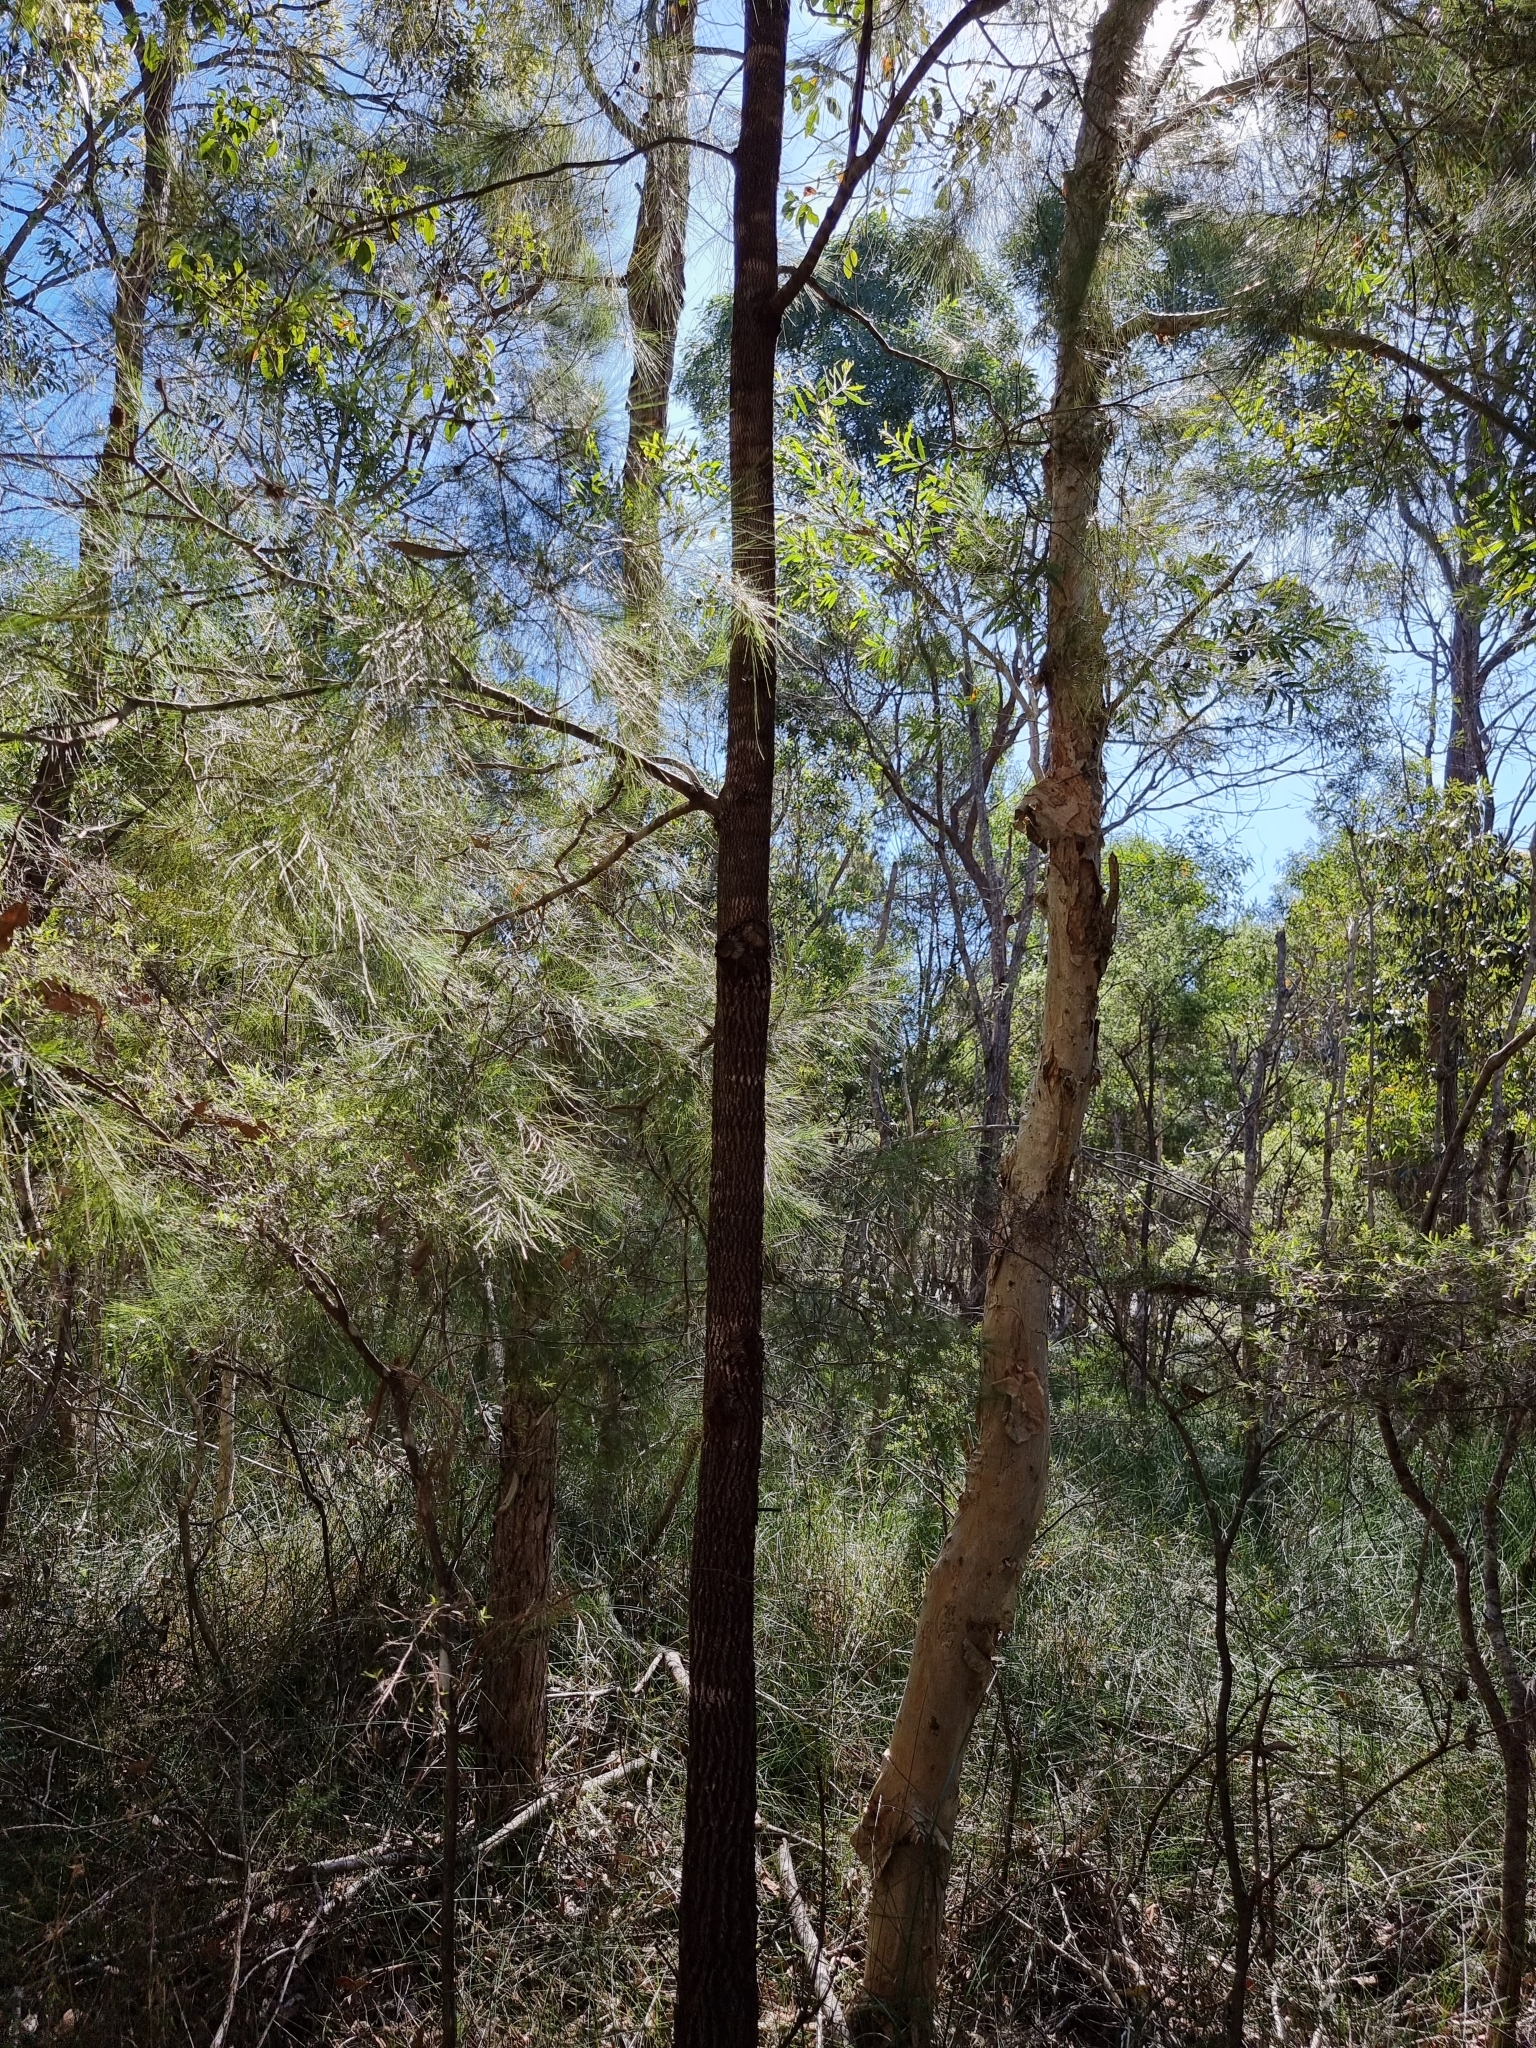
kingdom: Plantae
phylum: Tracheophyta
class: Magnoliopsida
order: Fagales
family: Casuarinaceae
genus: Allocasuarina
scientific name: Allocasuarina littoralis
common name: Black she-oak
